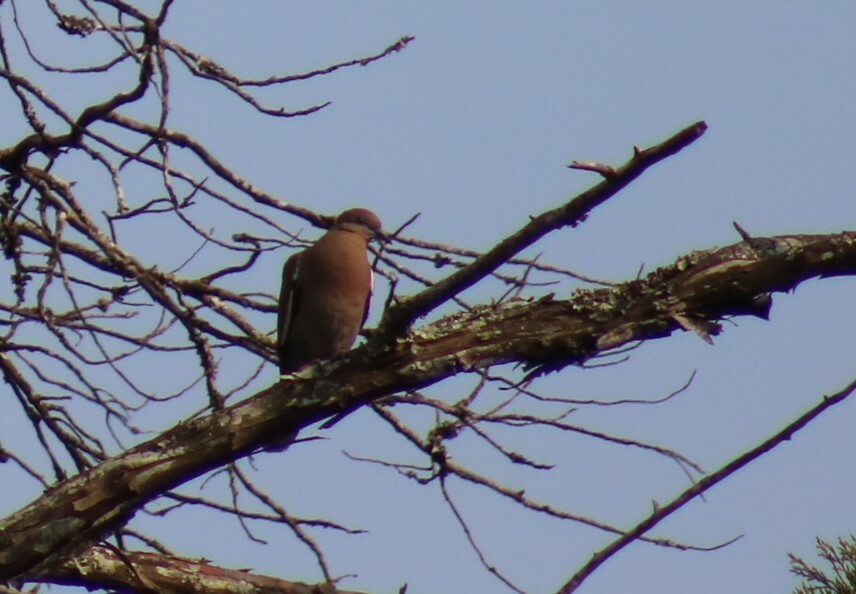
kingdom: Animalia
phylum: Chordata
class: Aves
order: Columbiformes
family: Columbidae
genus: Zenaida
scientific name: Zenaida asiatica
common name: White-winged dove
